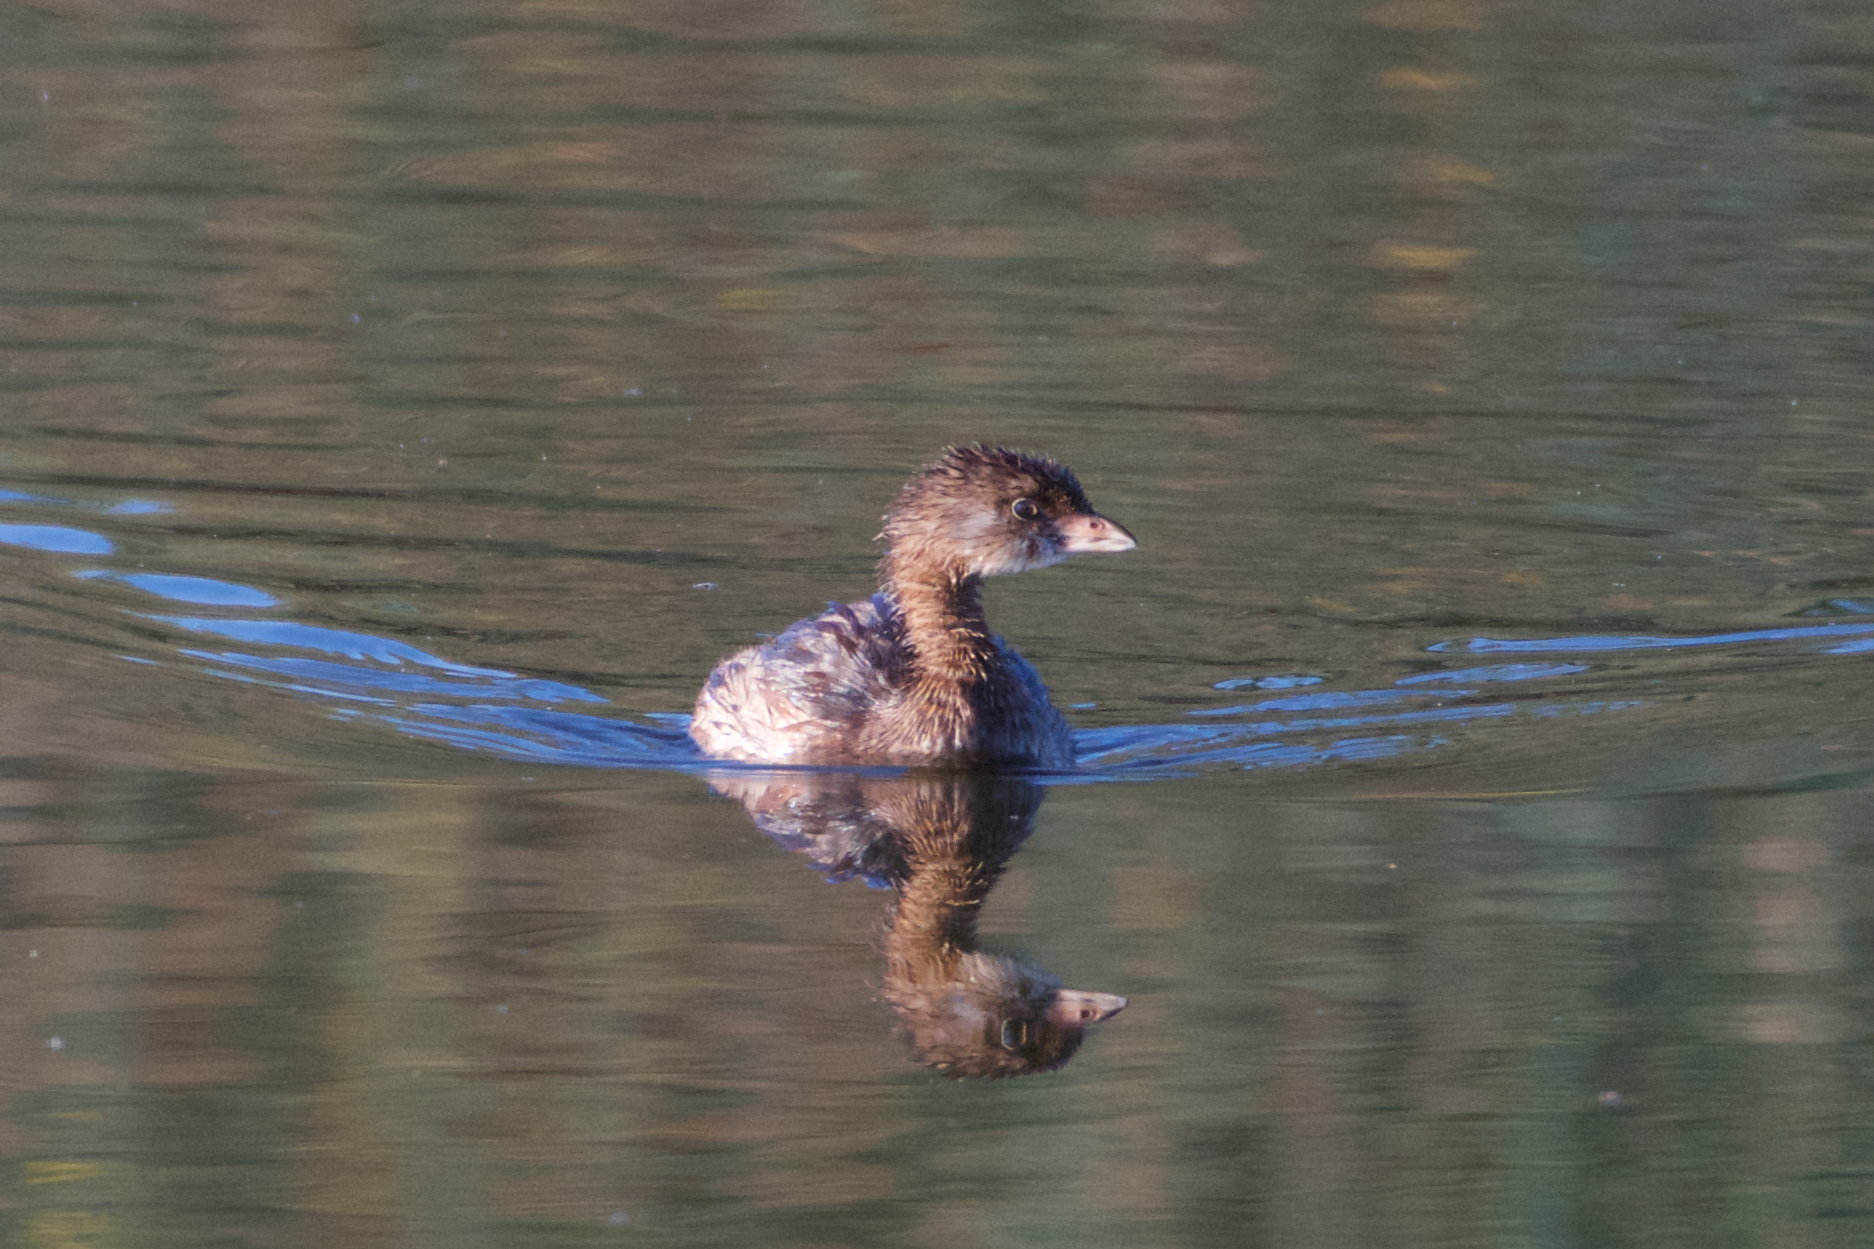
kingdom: Animalia
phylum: Chordata
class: Aves
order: Podicipediformes
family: Podicipedidae
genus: Podilymbus
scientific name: Podilymbus podiceps
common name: Pied-billed grebe
